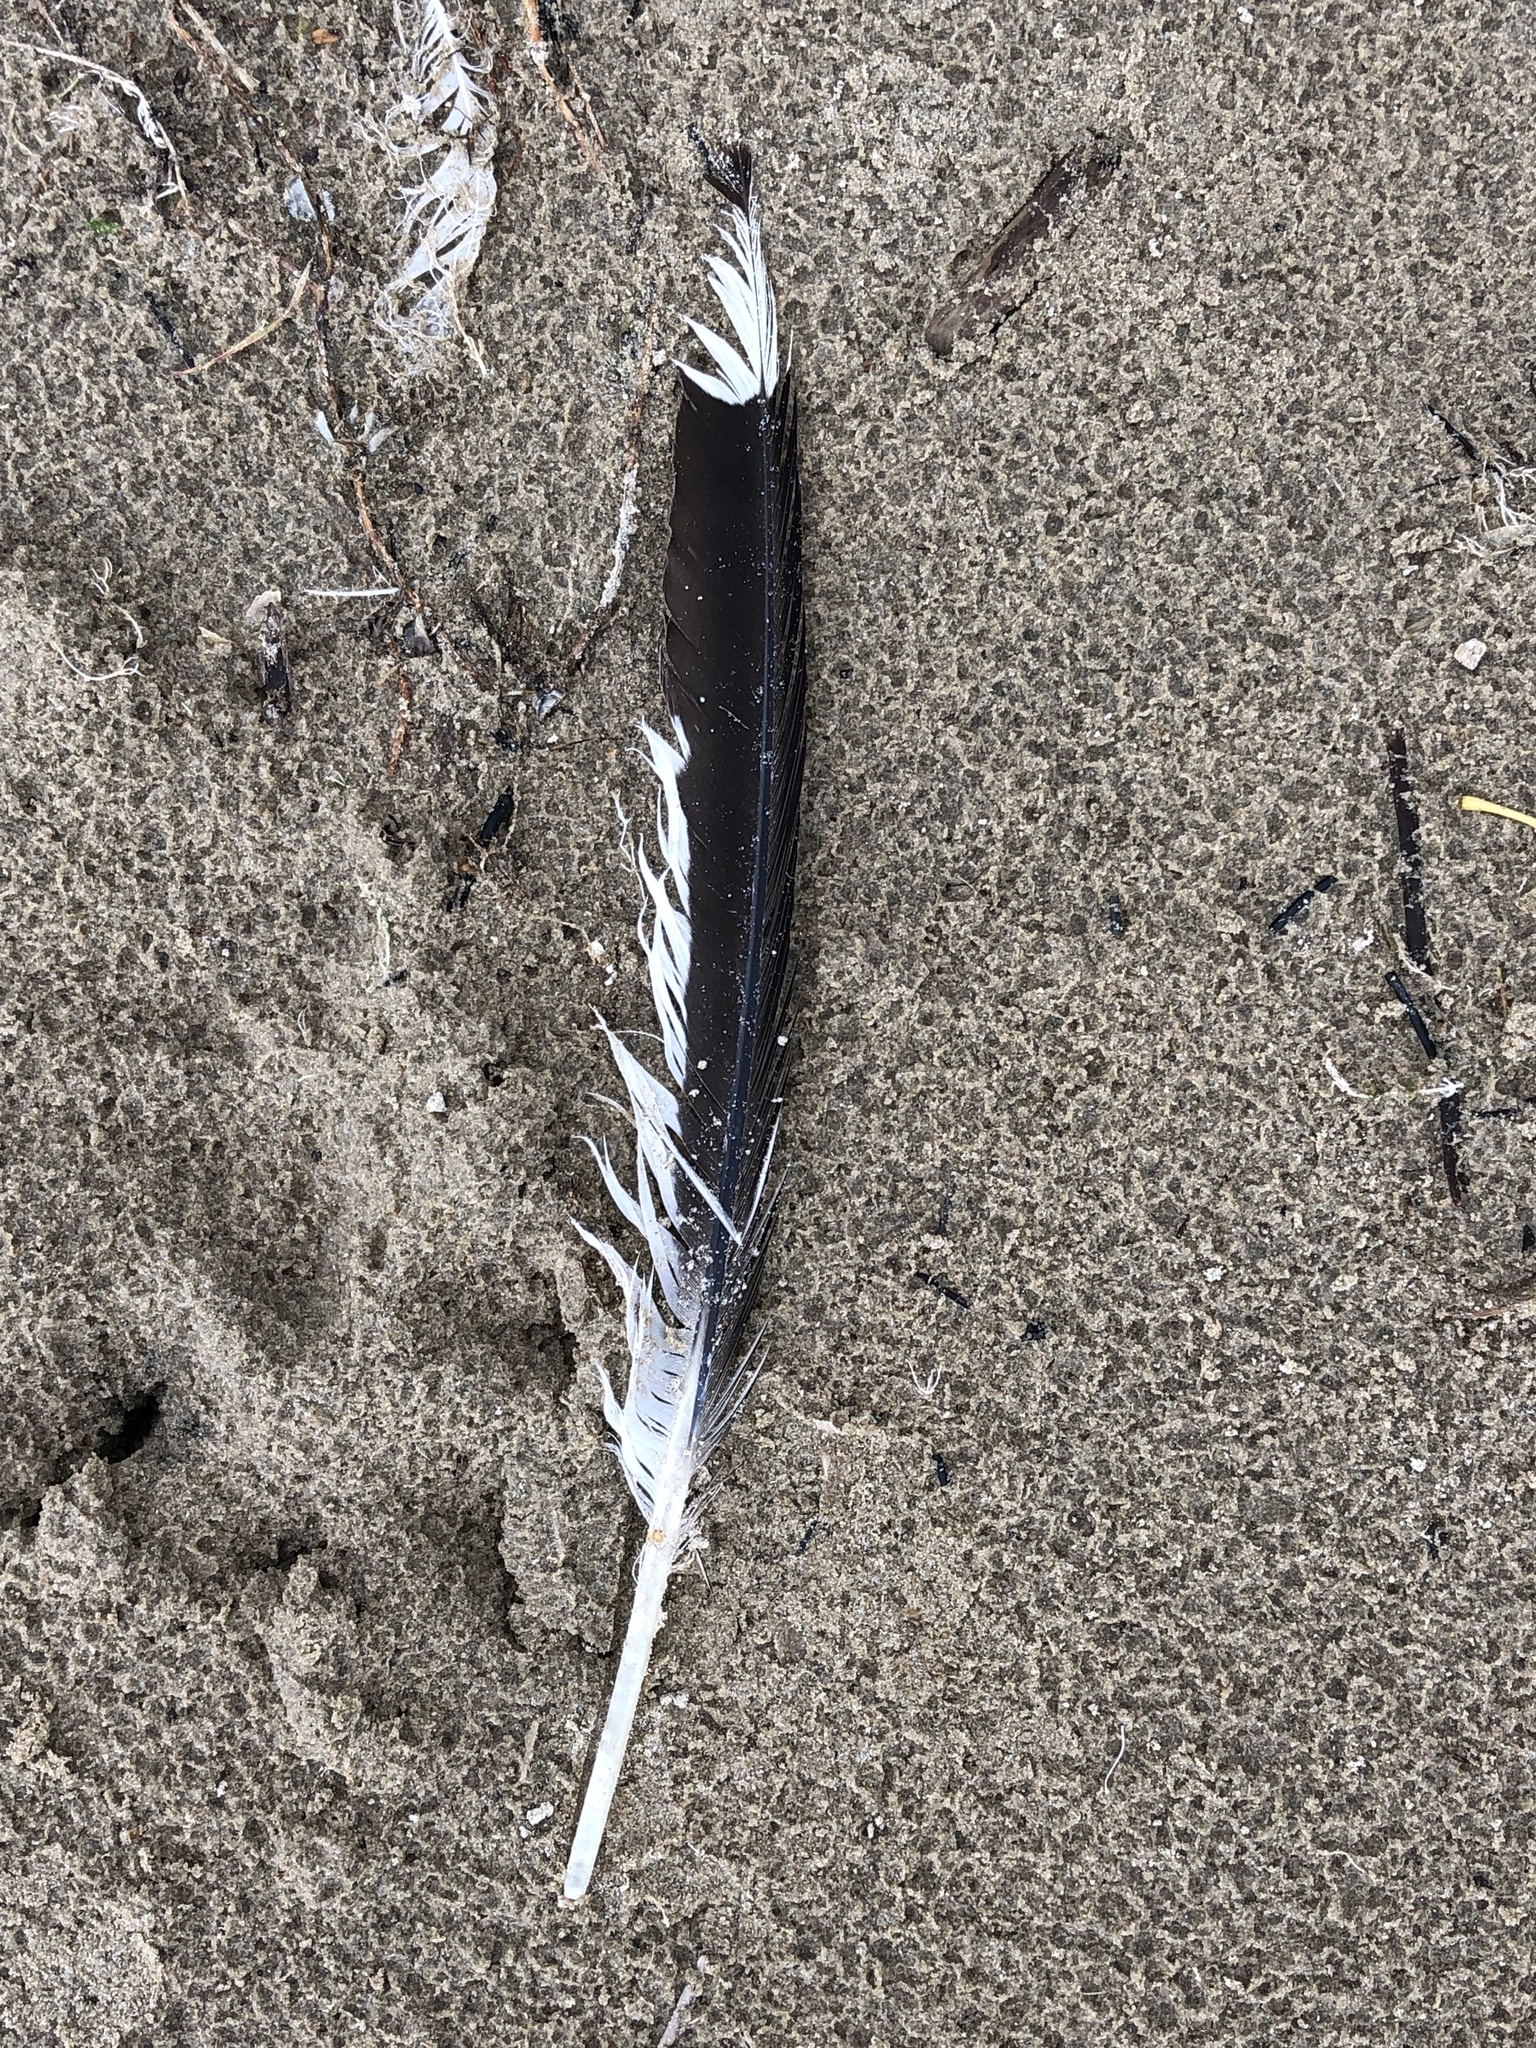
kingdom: Animalia
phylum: Chordata
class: Aves
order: Charadriiformes
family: Laridae
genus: Larus
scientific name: Larus delawarensis
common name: Ring-billed gull
